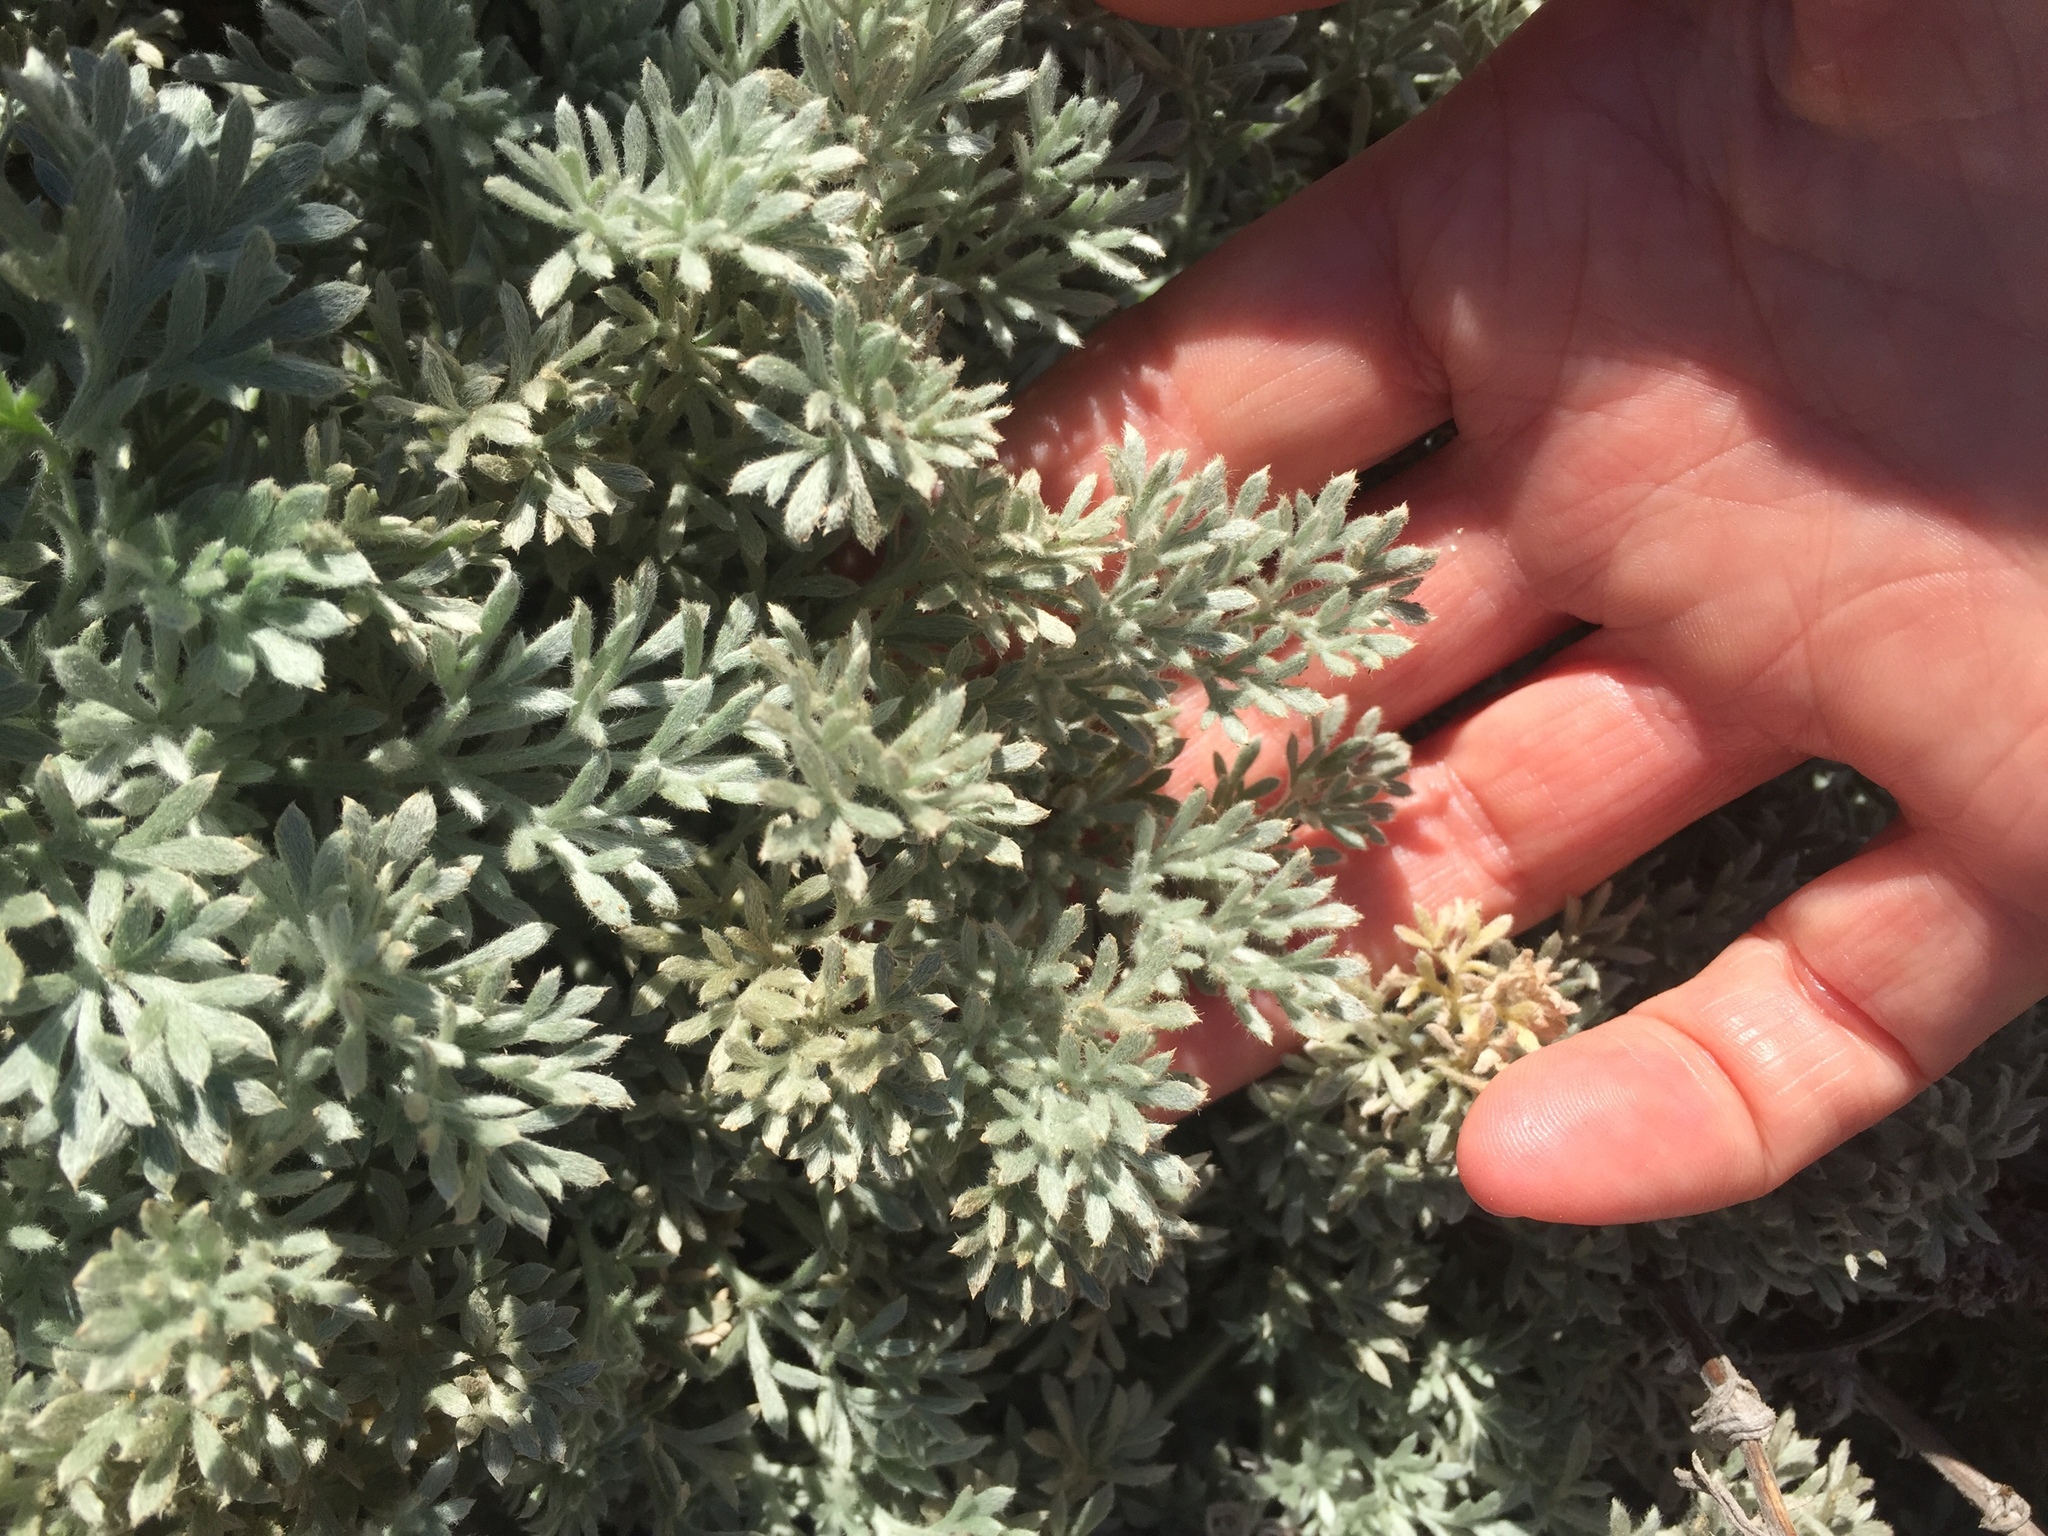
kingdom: Plantae
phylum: Tracheophyta
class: Magnoliopsida
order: Asterales
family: Asteraceae
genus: Artemisia
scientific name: Artemisia pycnocephala
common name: Coastal sagewort
